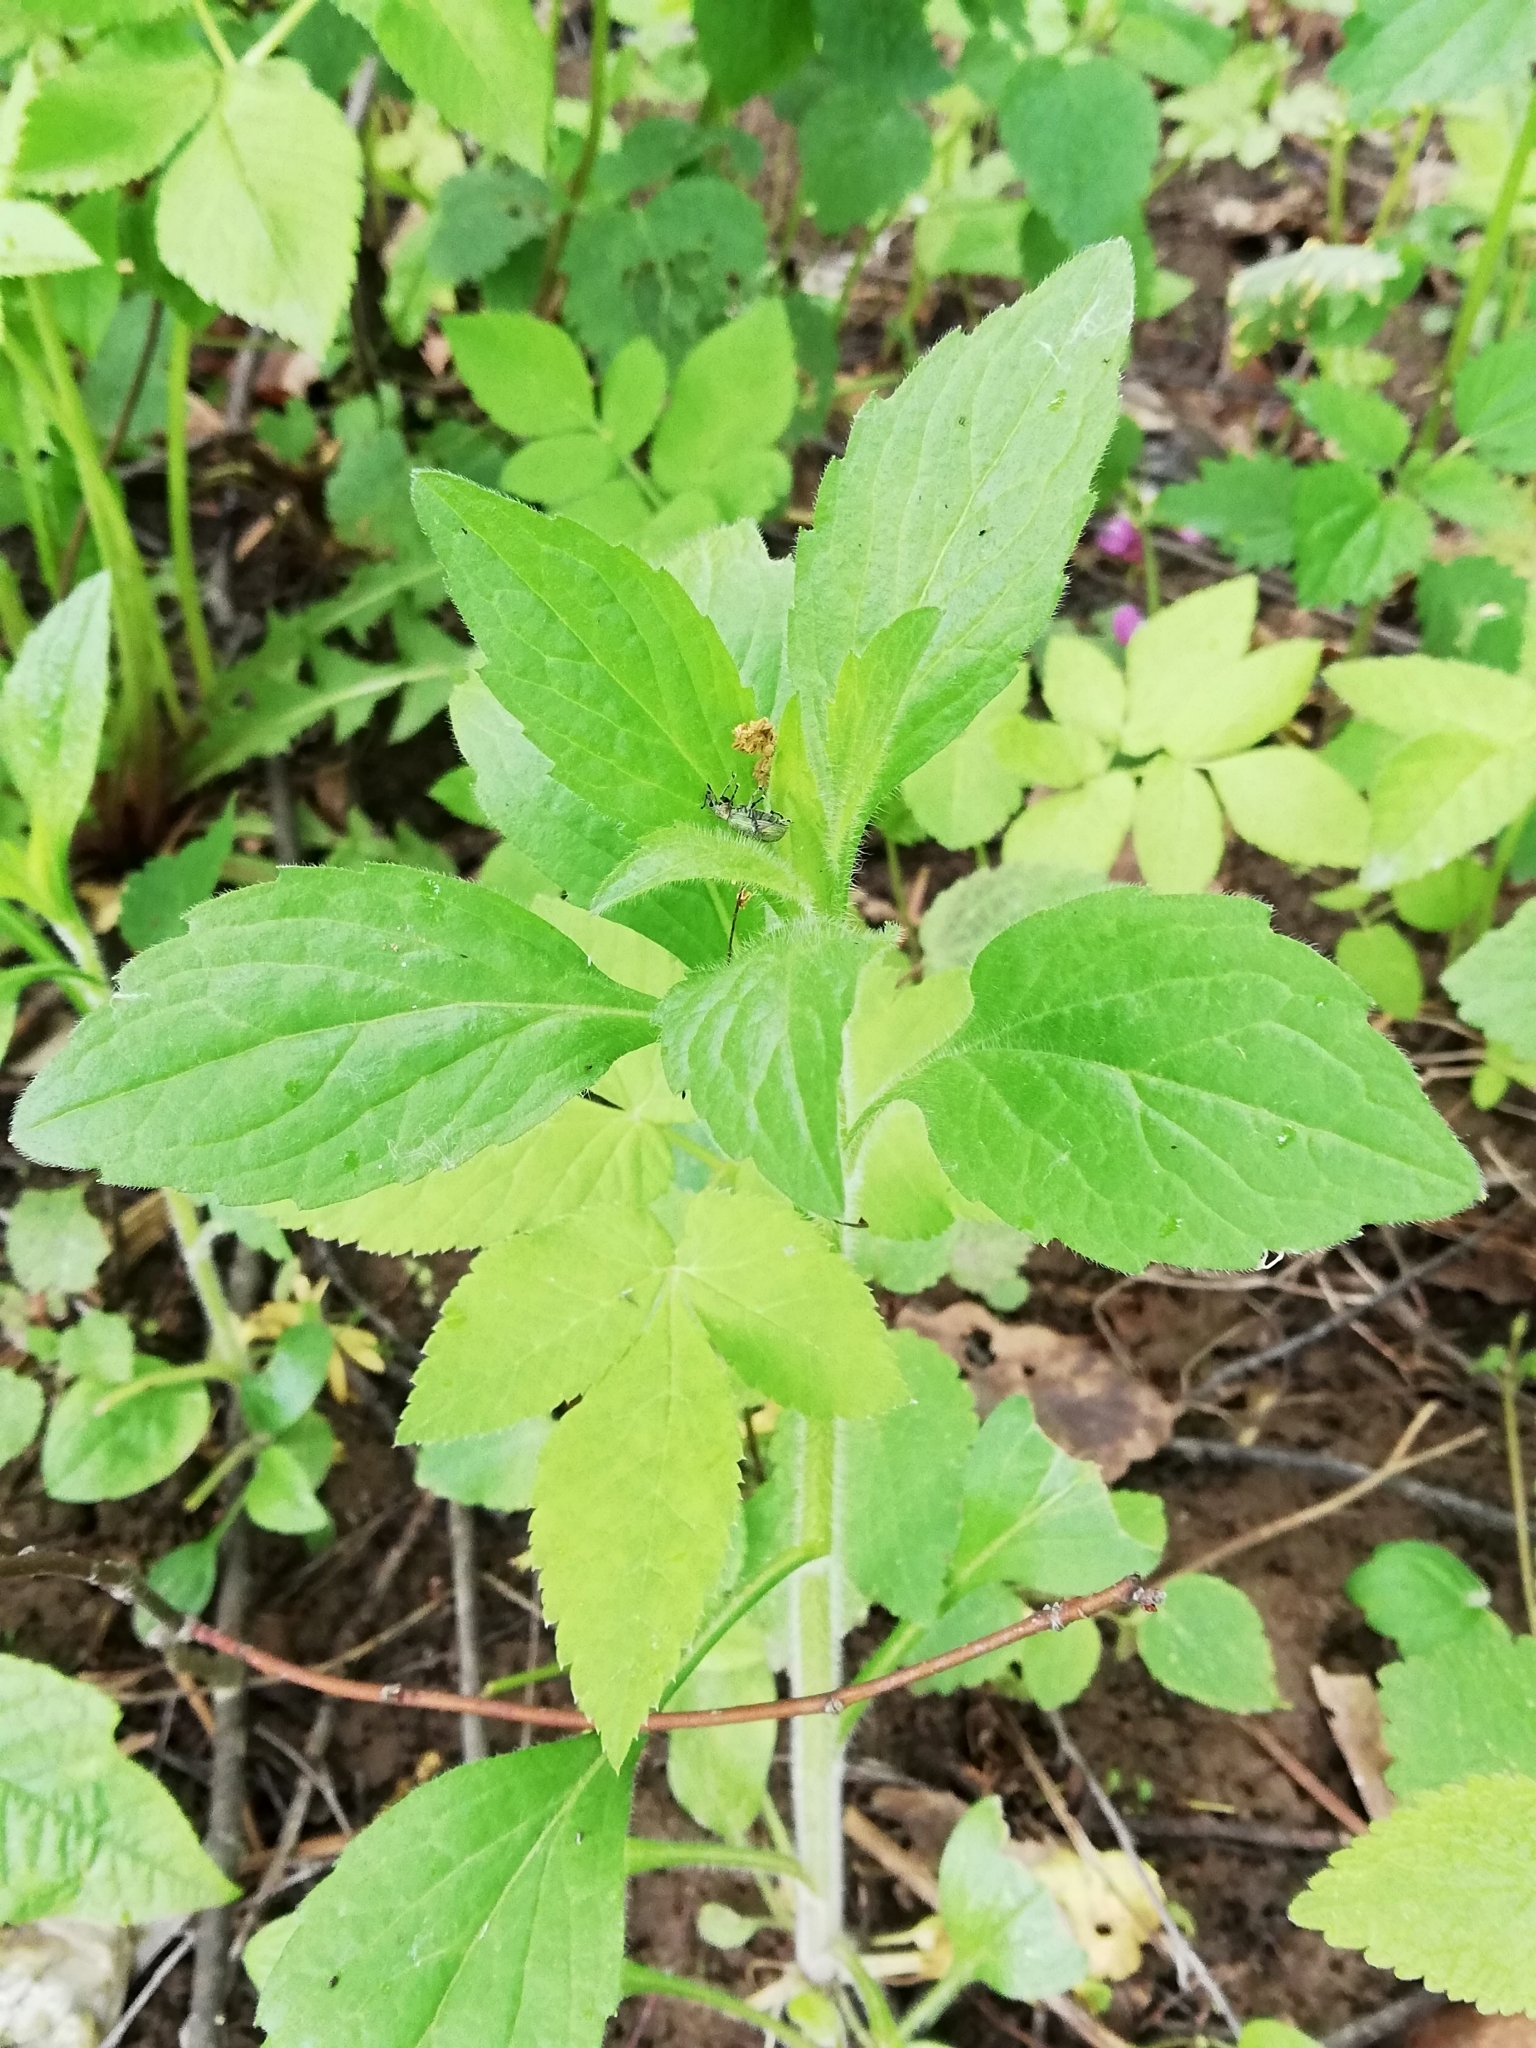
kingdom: Plantae
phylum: Tracheophyta
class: Magnoliopsida
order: Asterales
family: Asteraceae
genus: Erigeron
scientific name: Erigeron annuus
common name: Tall fleabane
